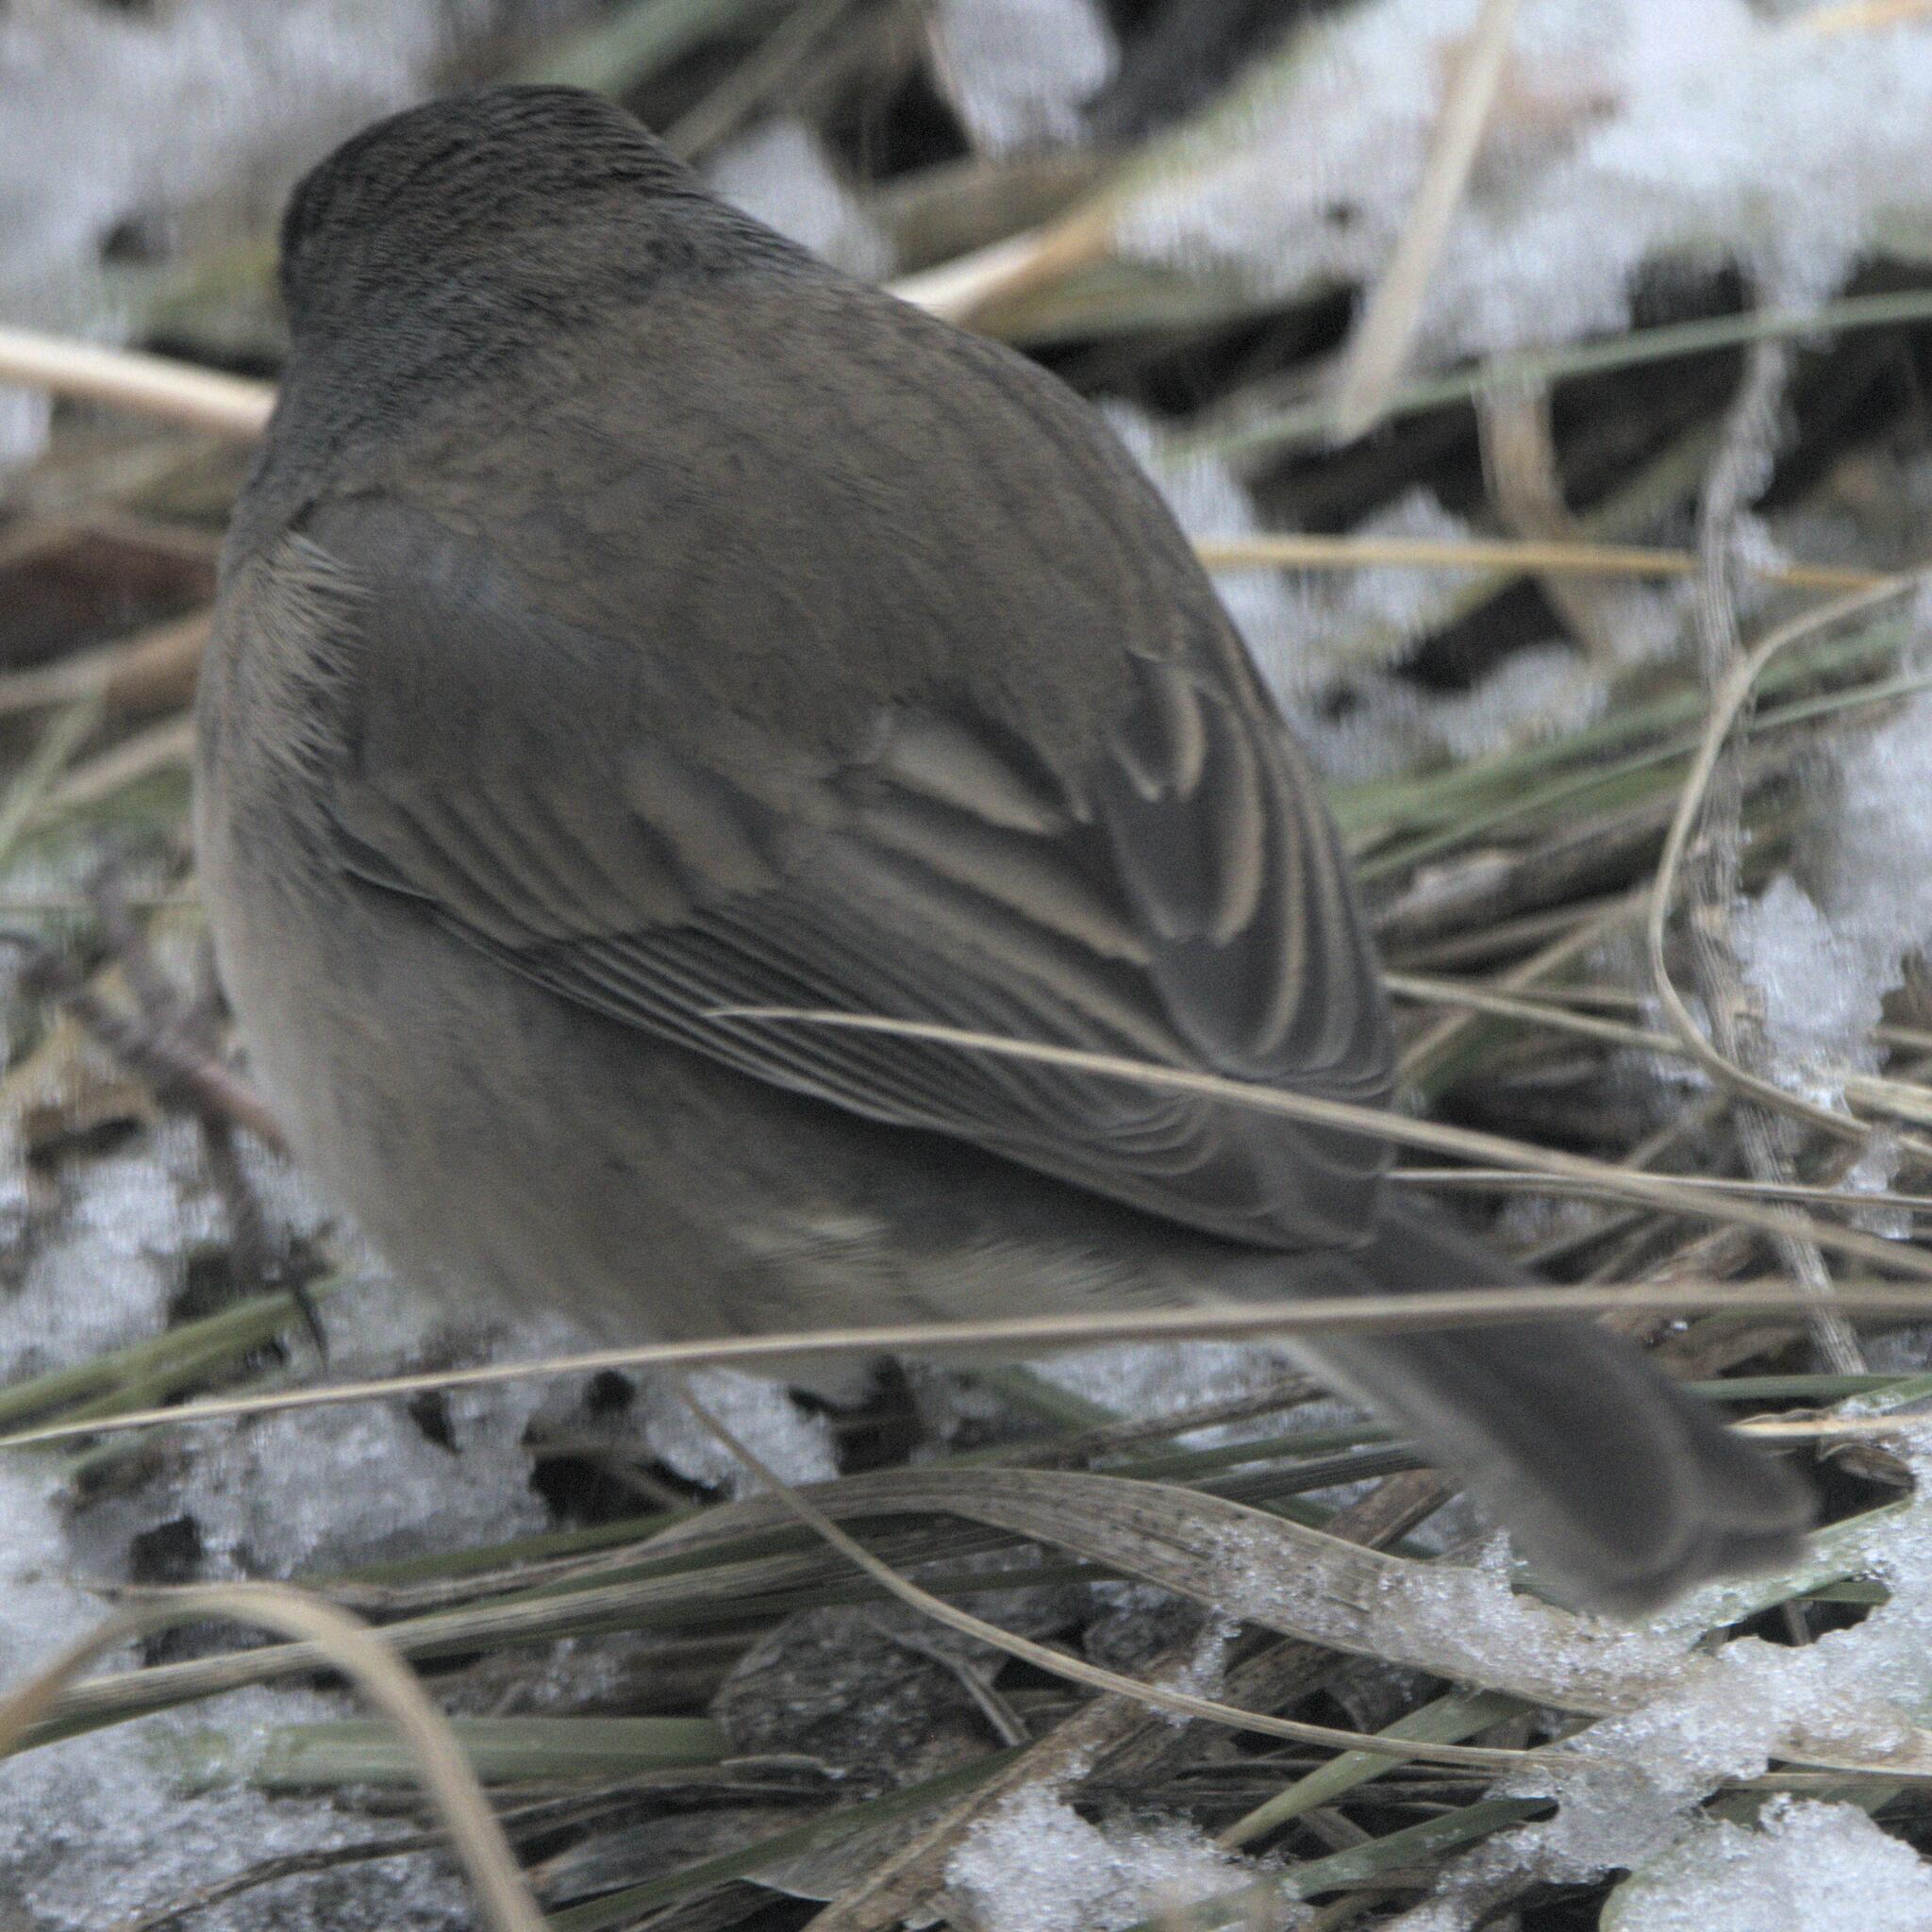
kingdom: Animalia
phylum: Chordata
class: Aves
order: Passeriformes
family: Passerellidae
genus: Junco
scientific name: Junco hyemalis
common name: Dark-eyed junco
